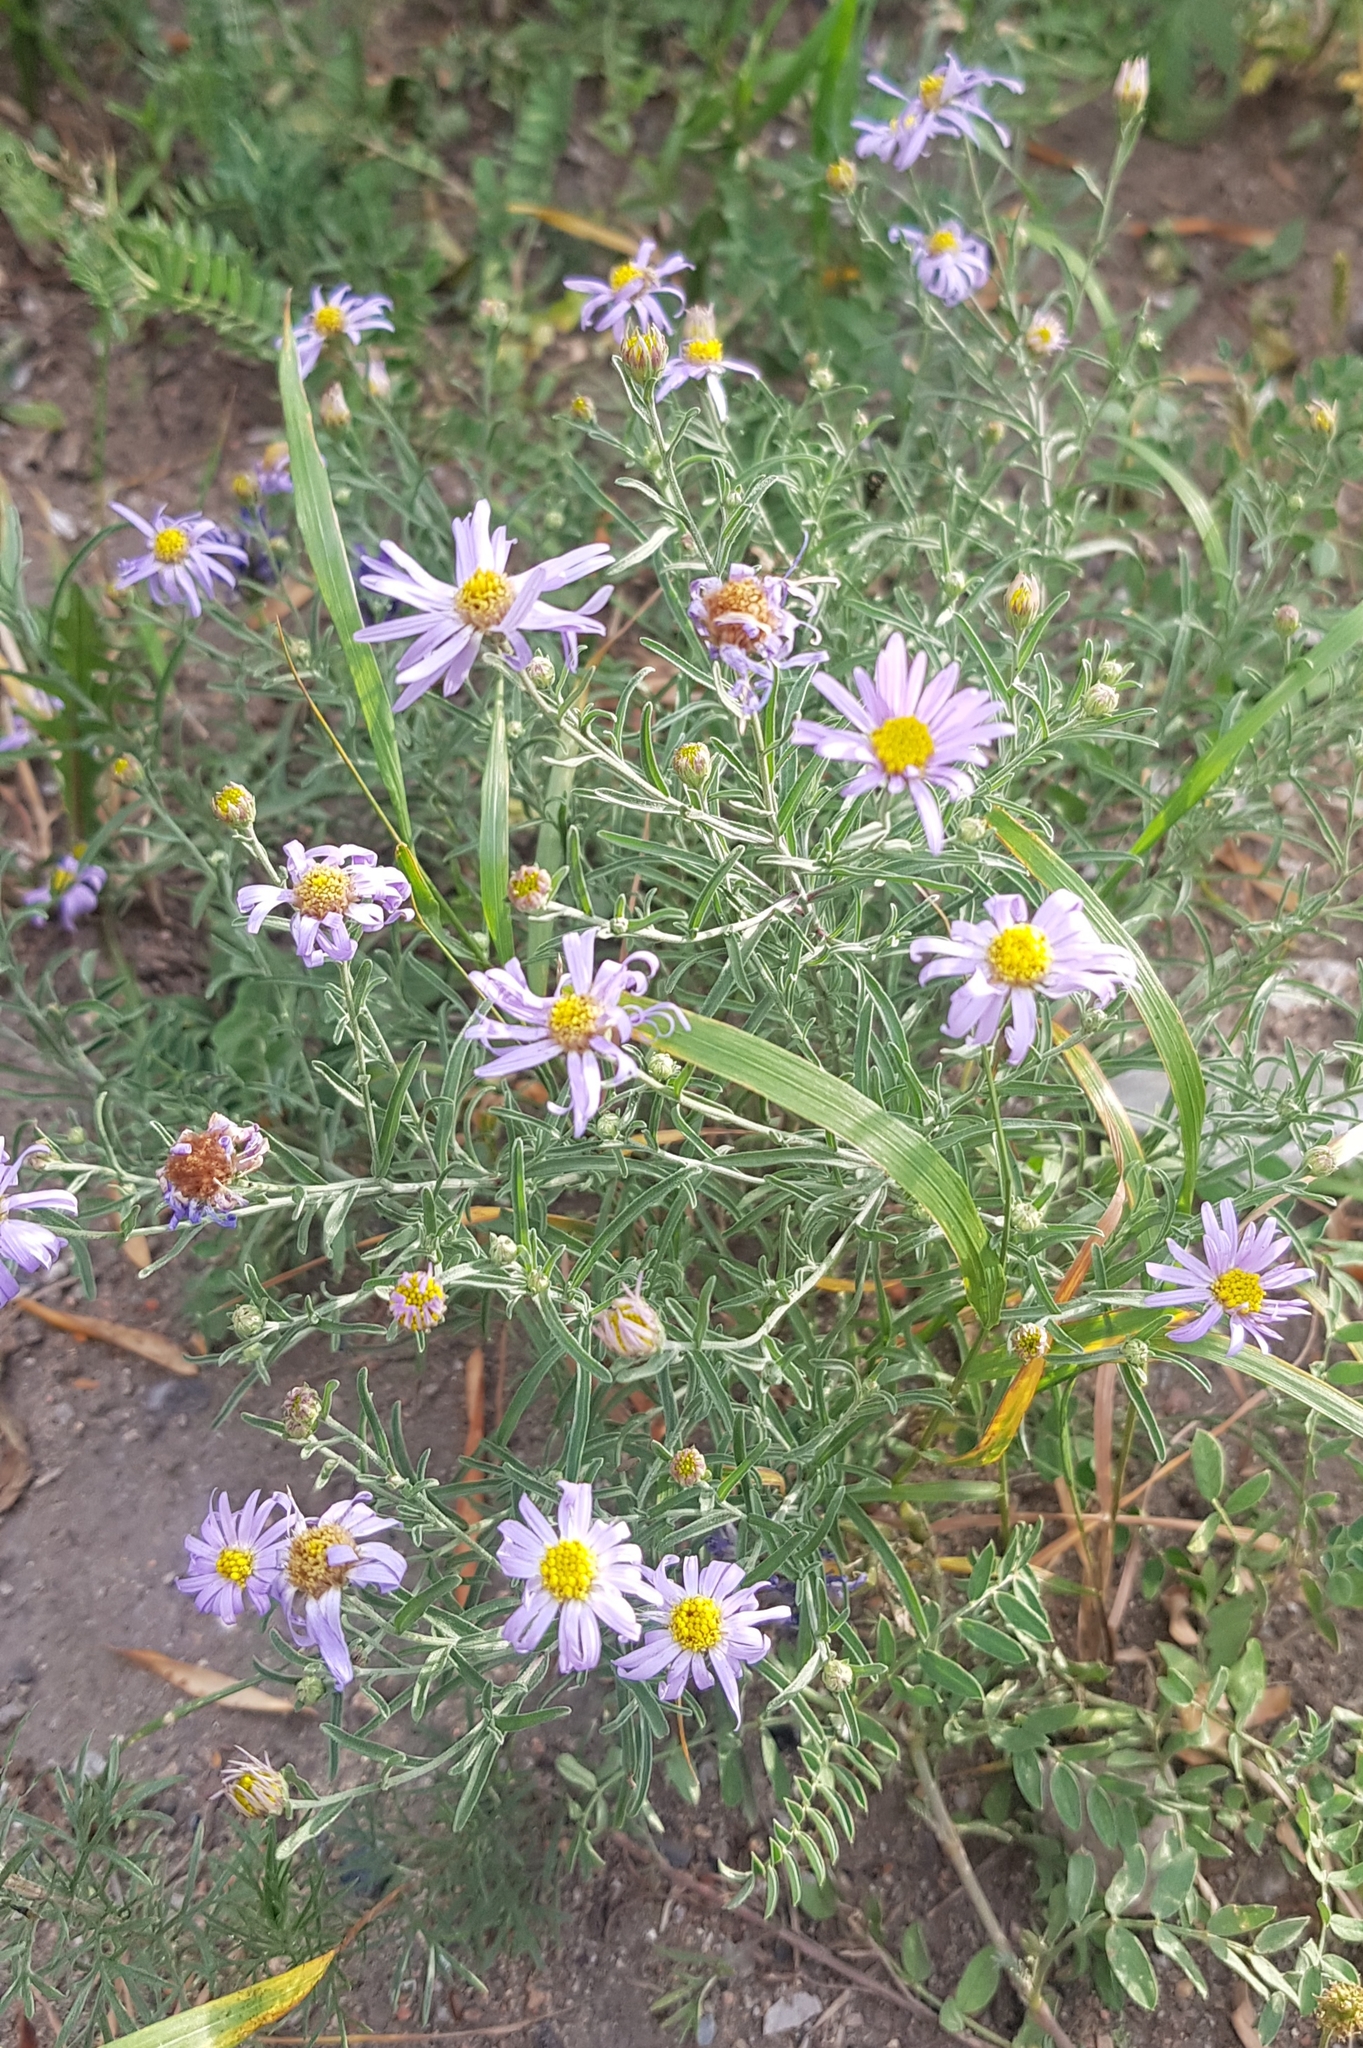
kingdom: Plantae
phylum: Tracheophyta
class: Magnoliopsida
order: Asterales
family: Asteraceae
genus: Heteropappus
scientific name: Heteropappus altaicus
